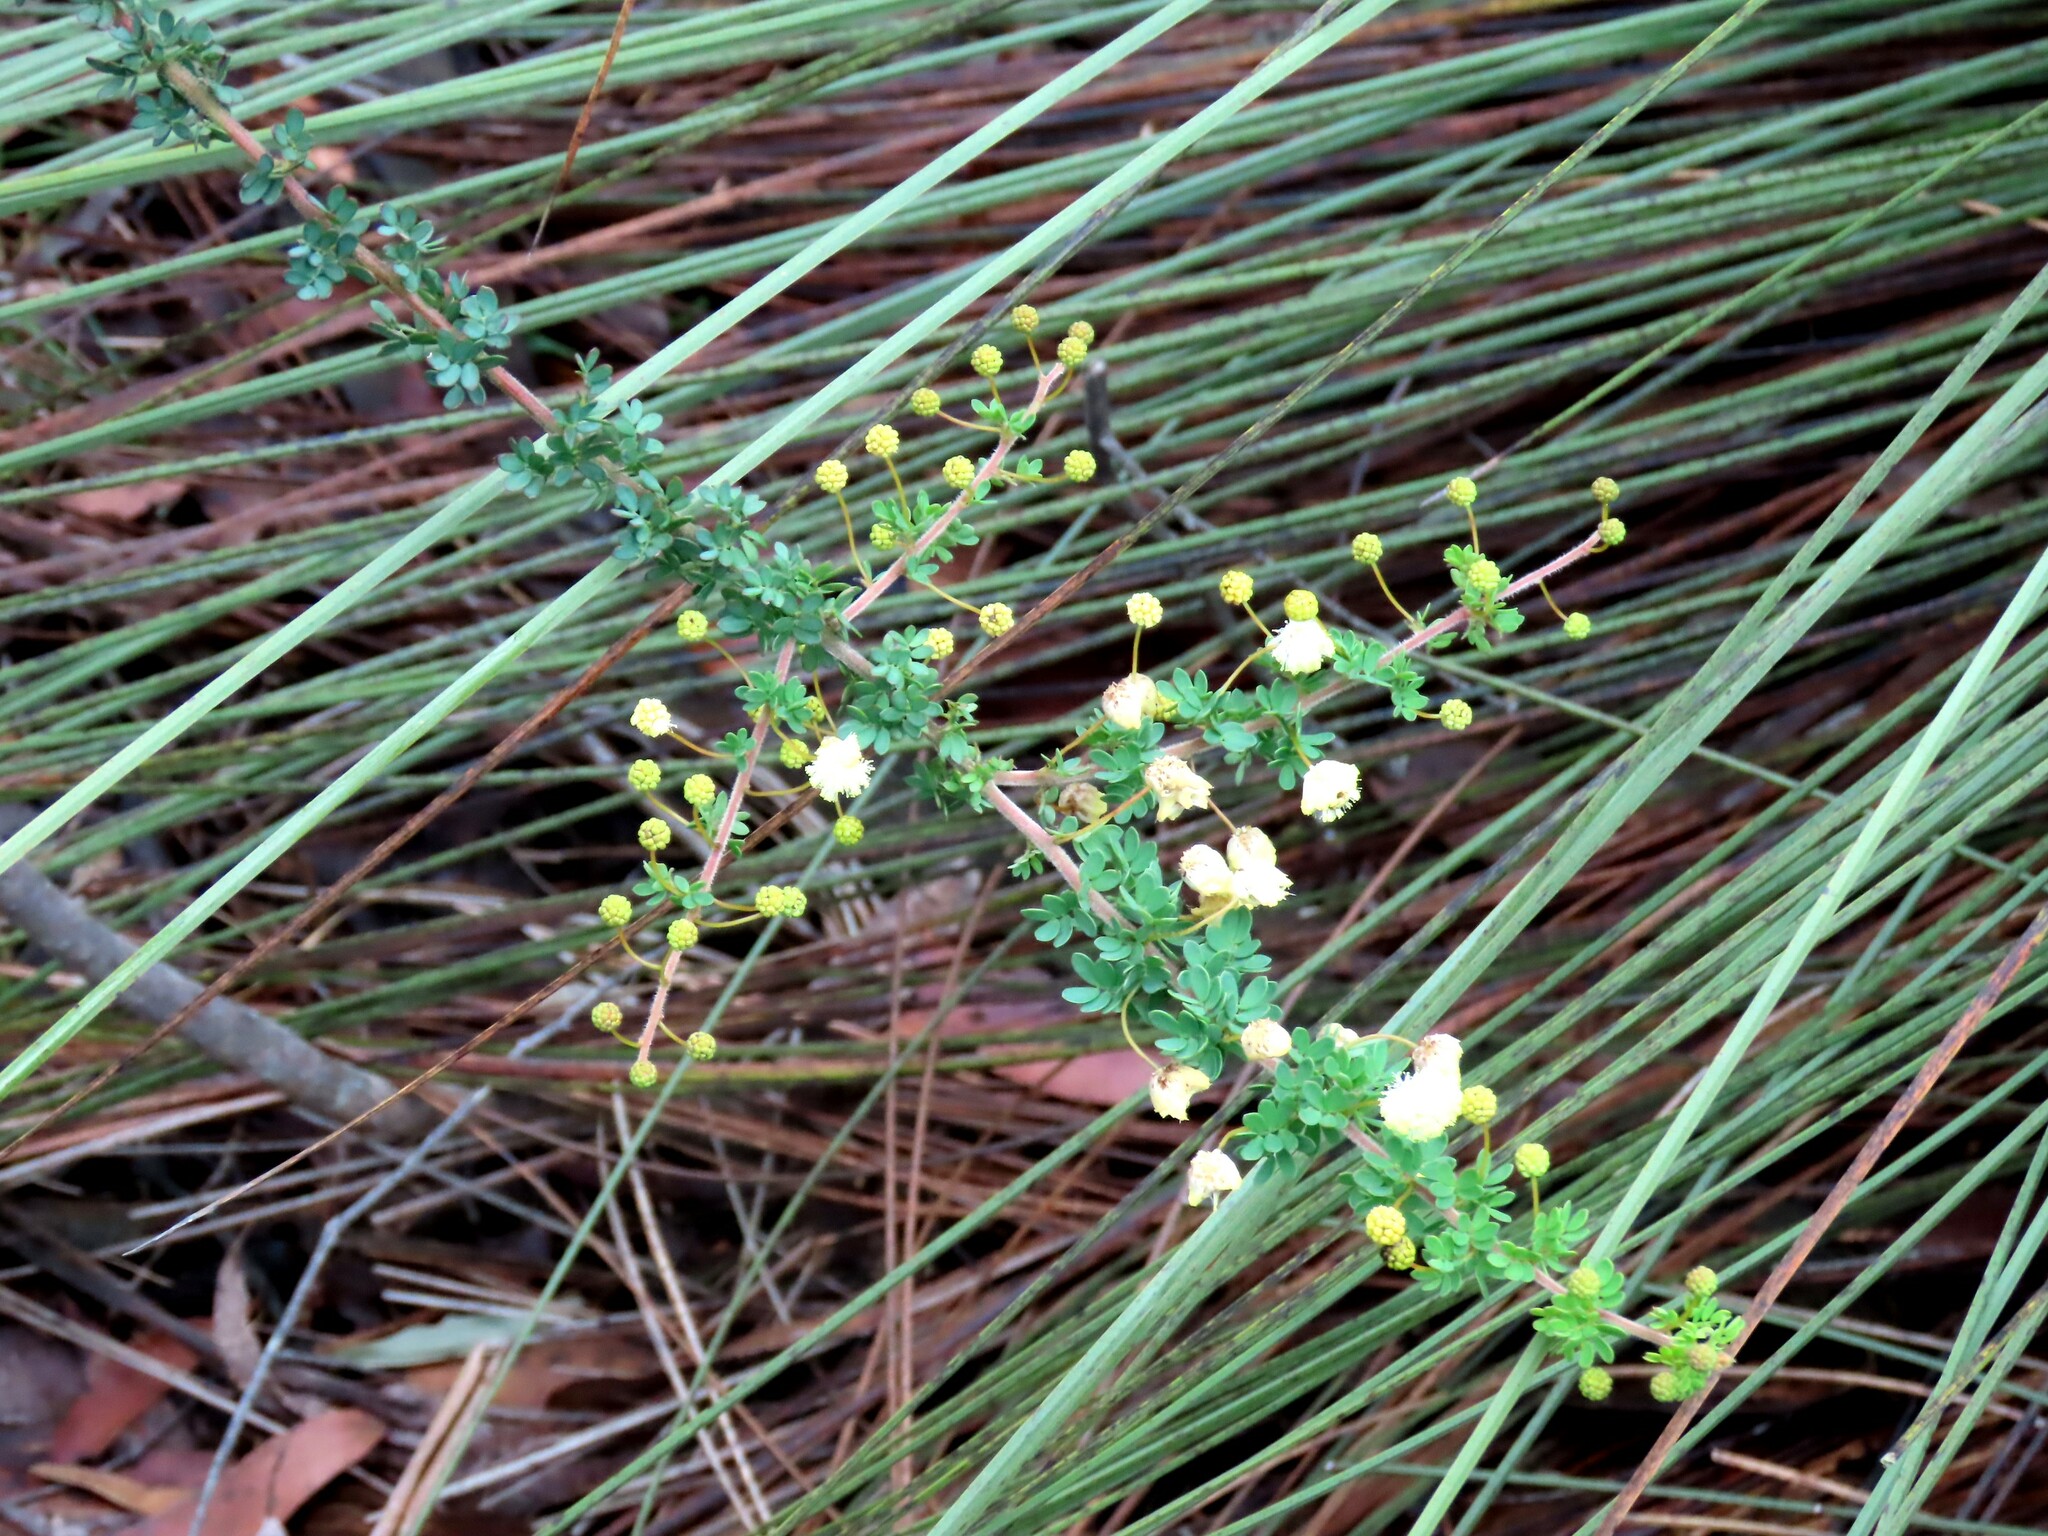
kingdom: Plantae
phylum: Tracheophyta
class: Magnoliopsida
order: Fabales
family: Fabaceae
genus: Acacia
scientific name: Acacia mitchellii
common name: Mitchell's wattle
